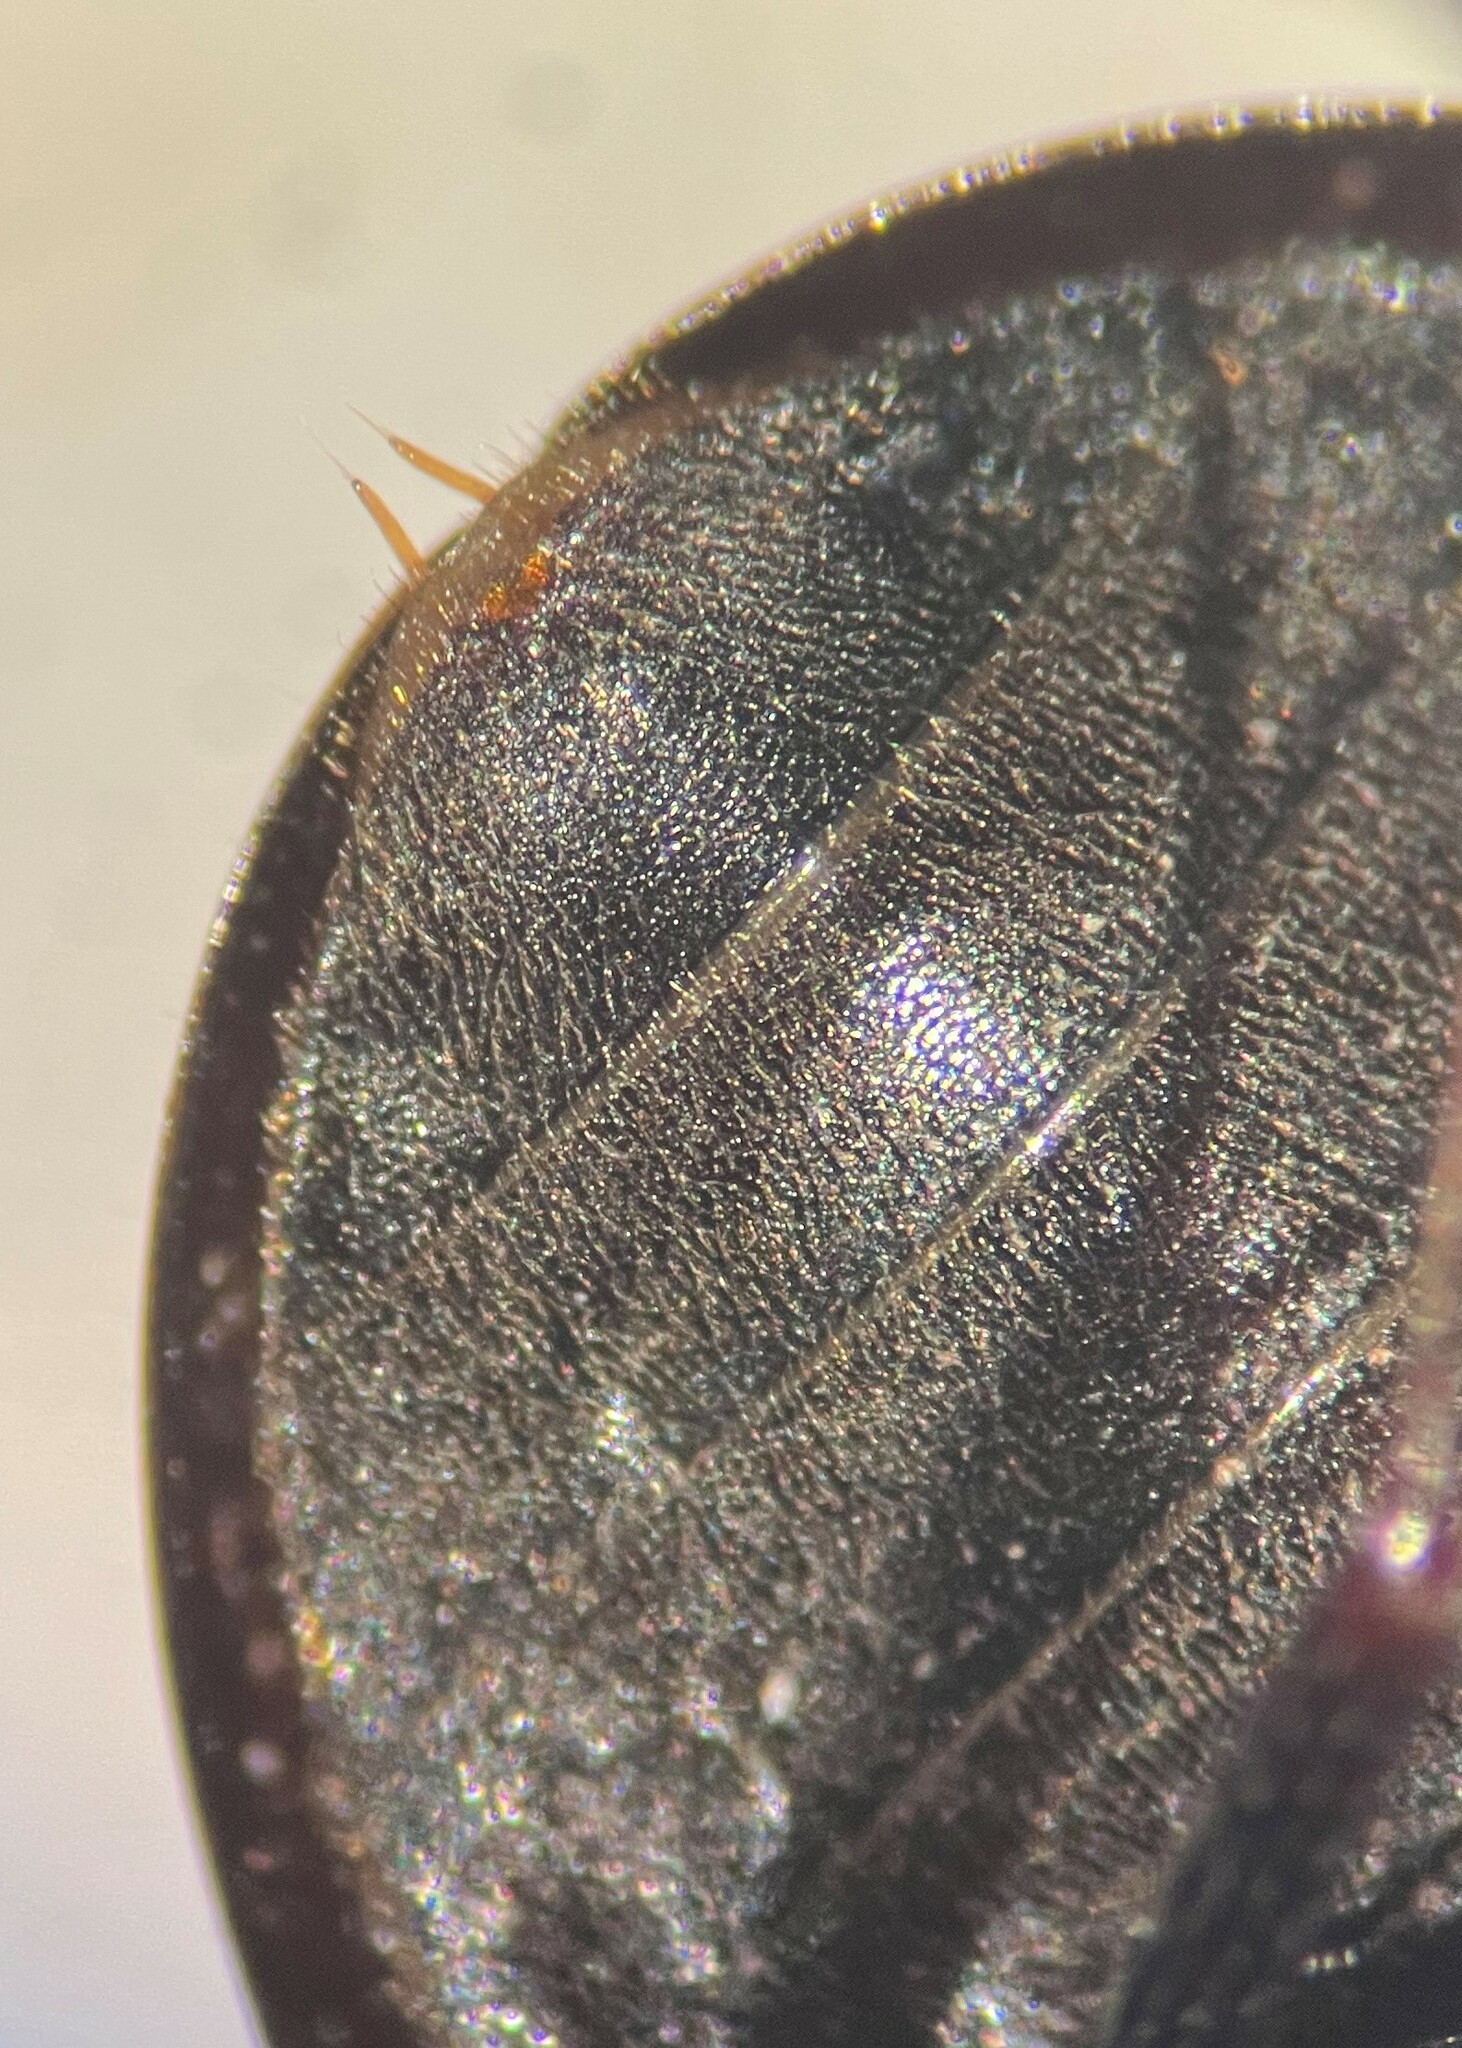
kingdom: Animalia
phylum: Arthropoda
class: Insecta
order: Coleoptera
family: Hydrophilidae
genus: Enochrus
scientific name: Enochrus consors
